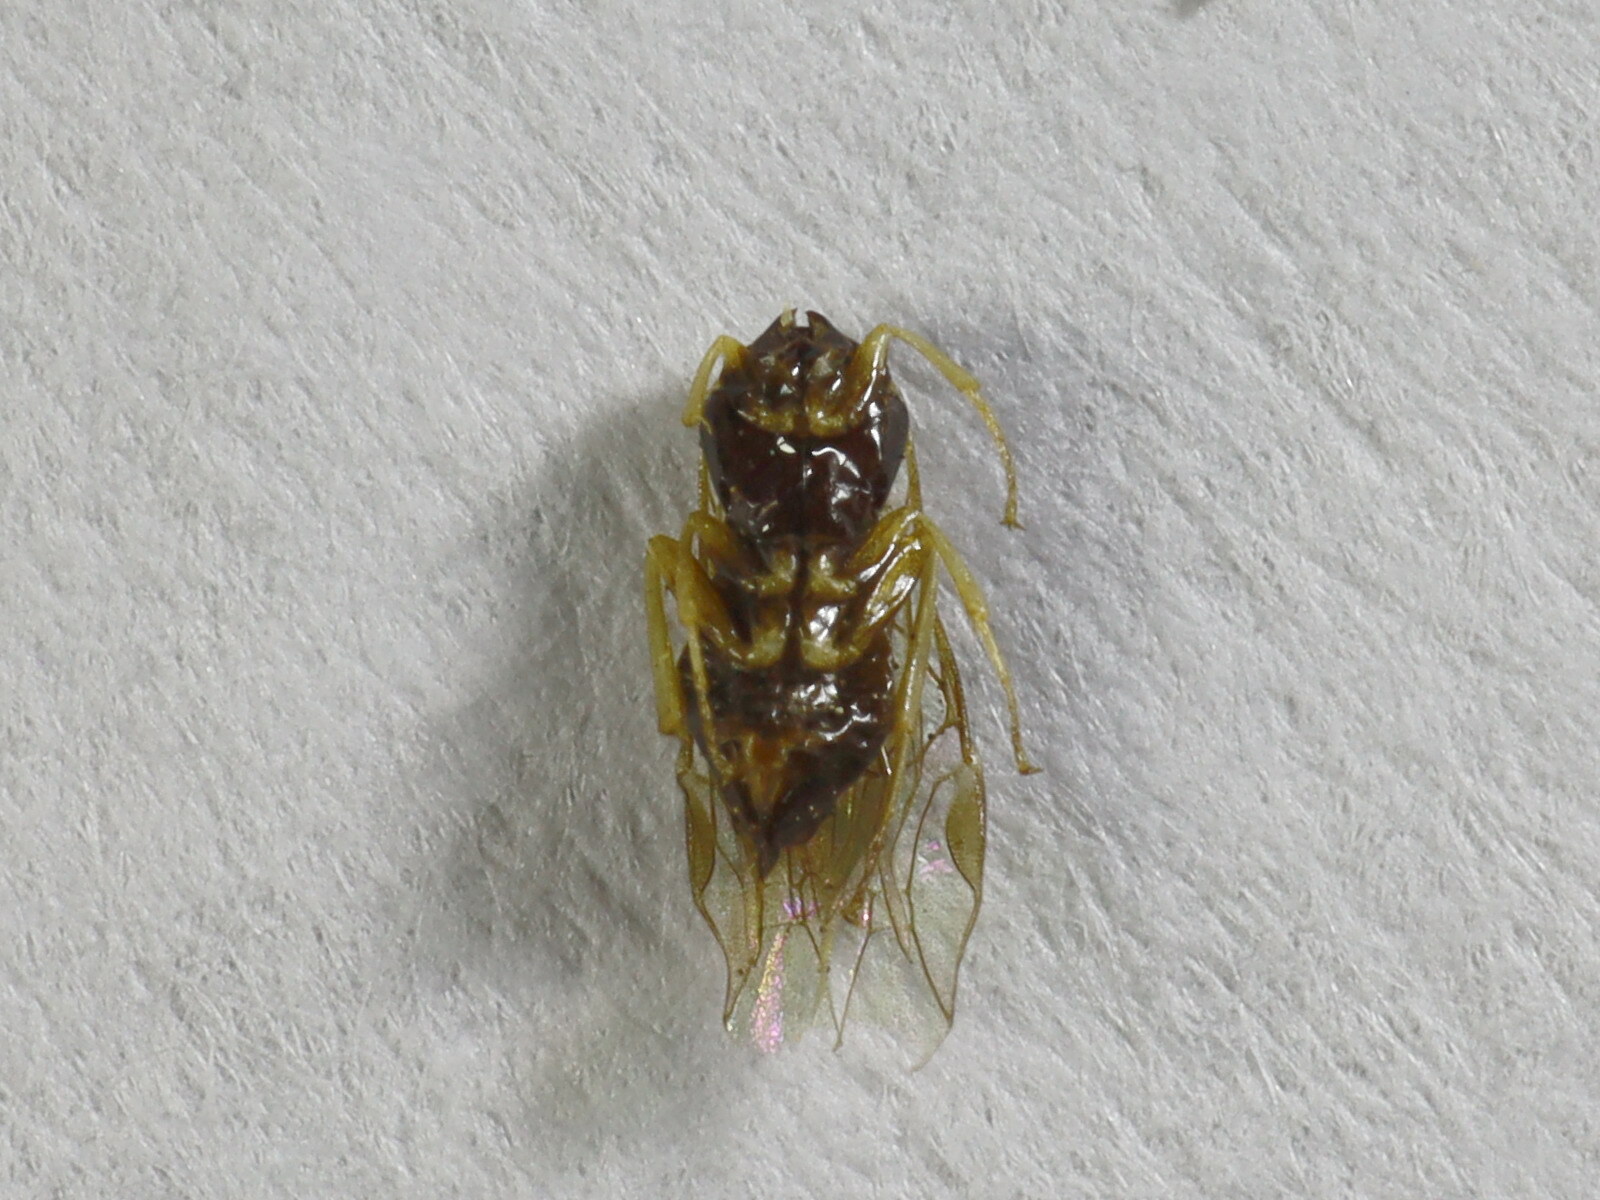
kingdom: Animalia
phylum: Arthropoda
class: Insecta
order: Hymenoptera
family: Tenthredinidae
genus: Euura
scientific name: Euura viminalis
